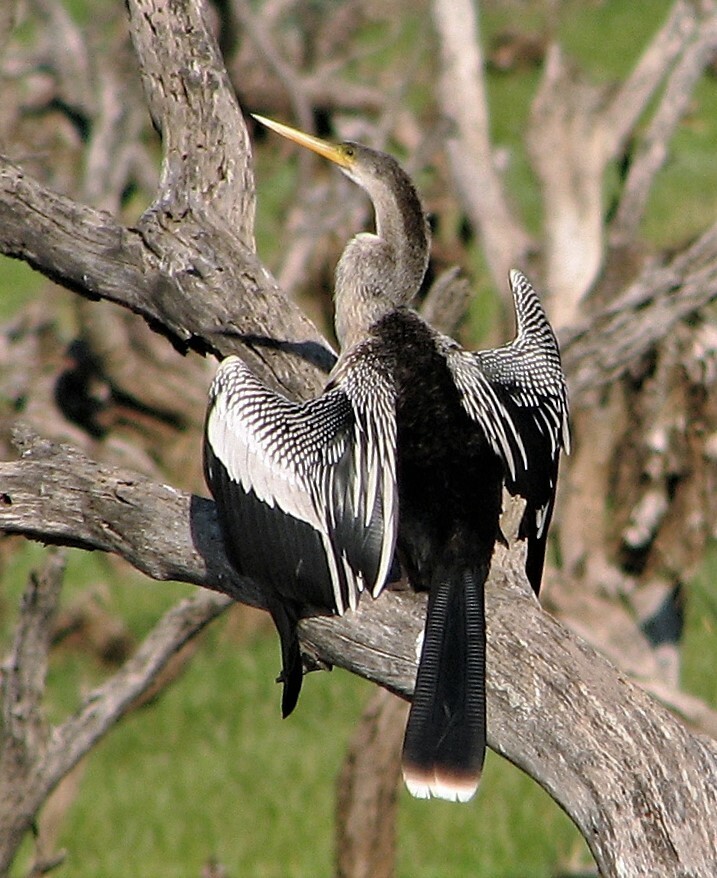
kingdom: Animalia
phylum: Chordata
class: Aves
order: Suliformes
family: Anhingidae
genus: Anhinga
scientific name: Anhinga anhinga
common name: Anhinga
